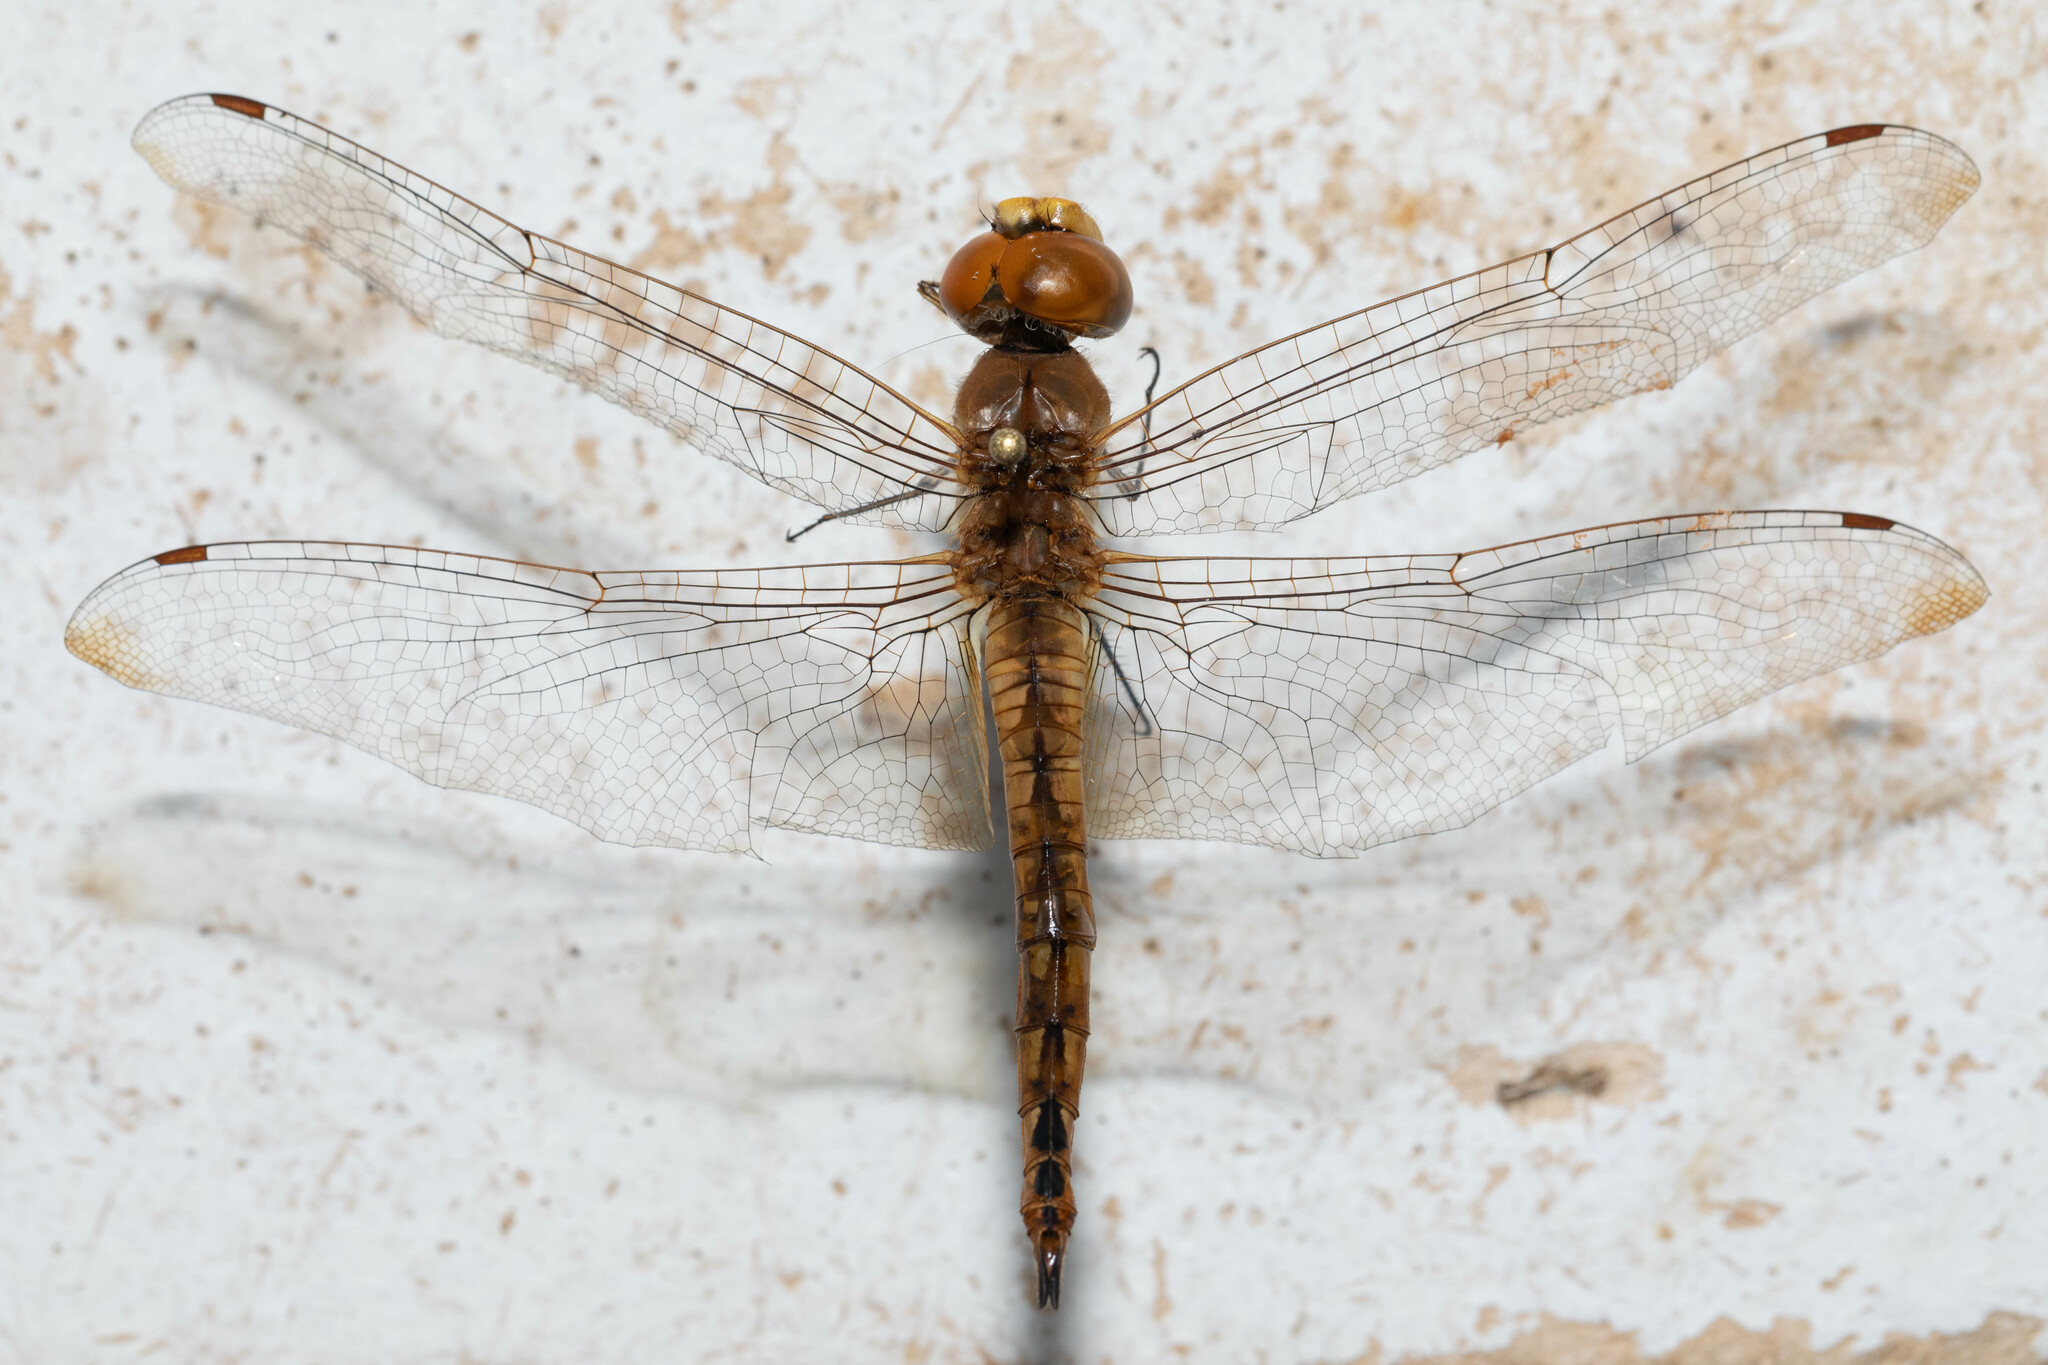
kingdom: Animalia
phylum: Arthropoda
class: Insecta
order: Odonata
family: Libellulidae
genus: Pantala
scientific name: Pantala flavescens
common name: Wandering glider
